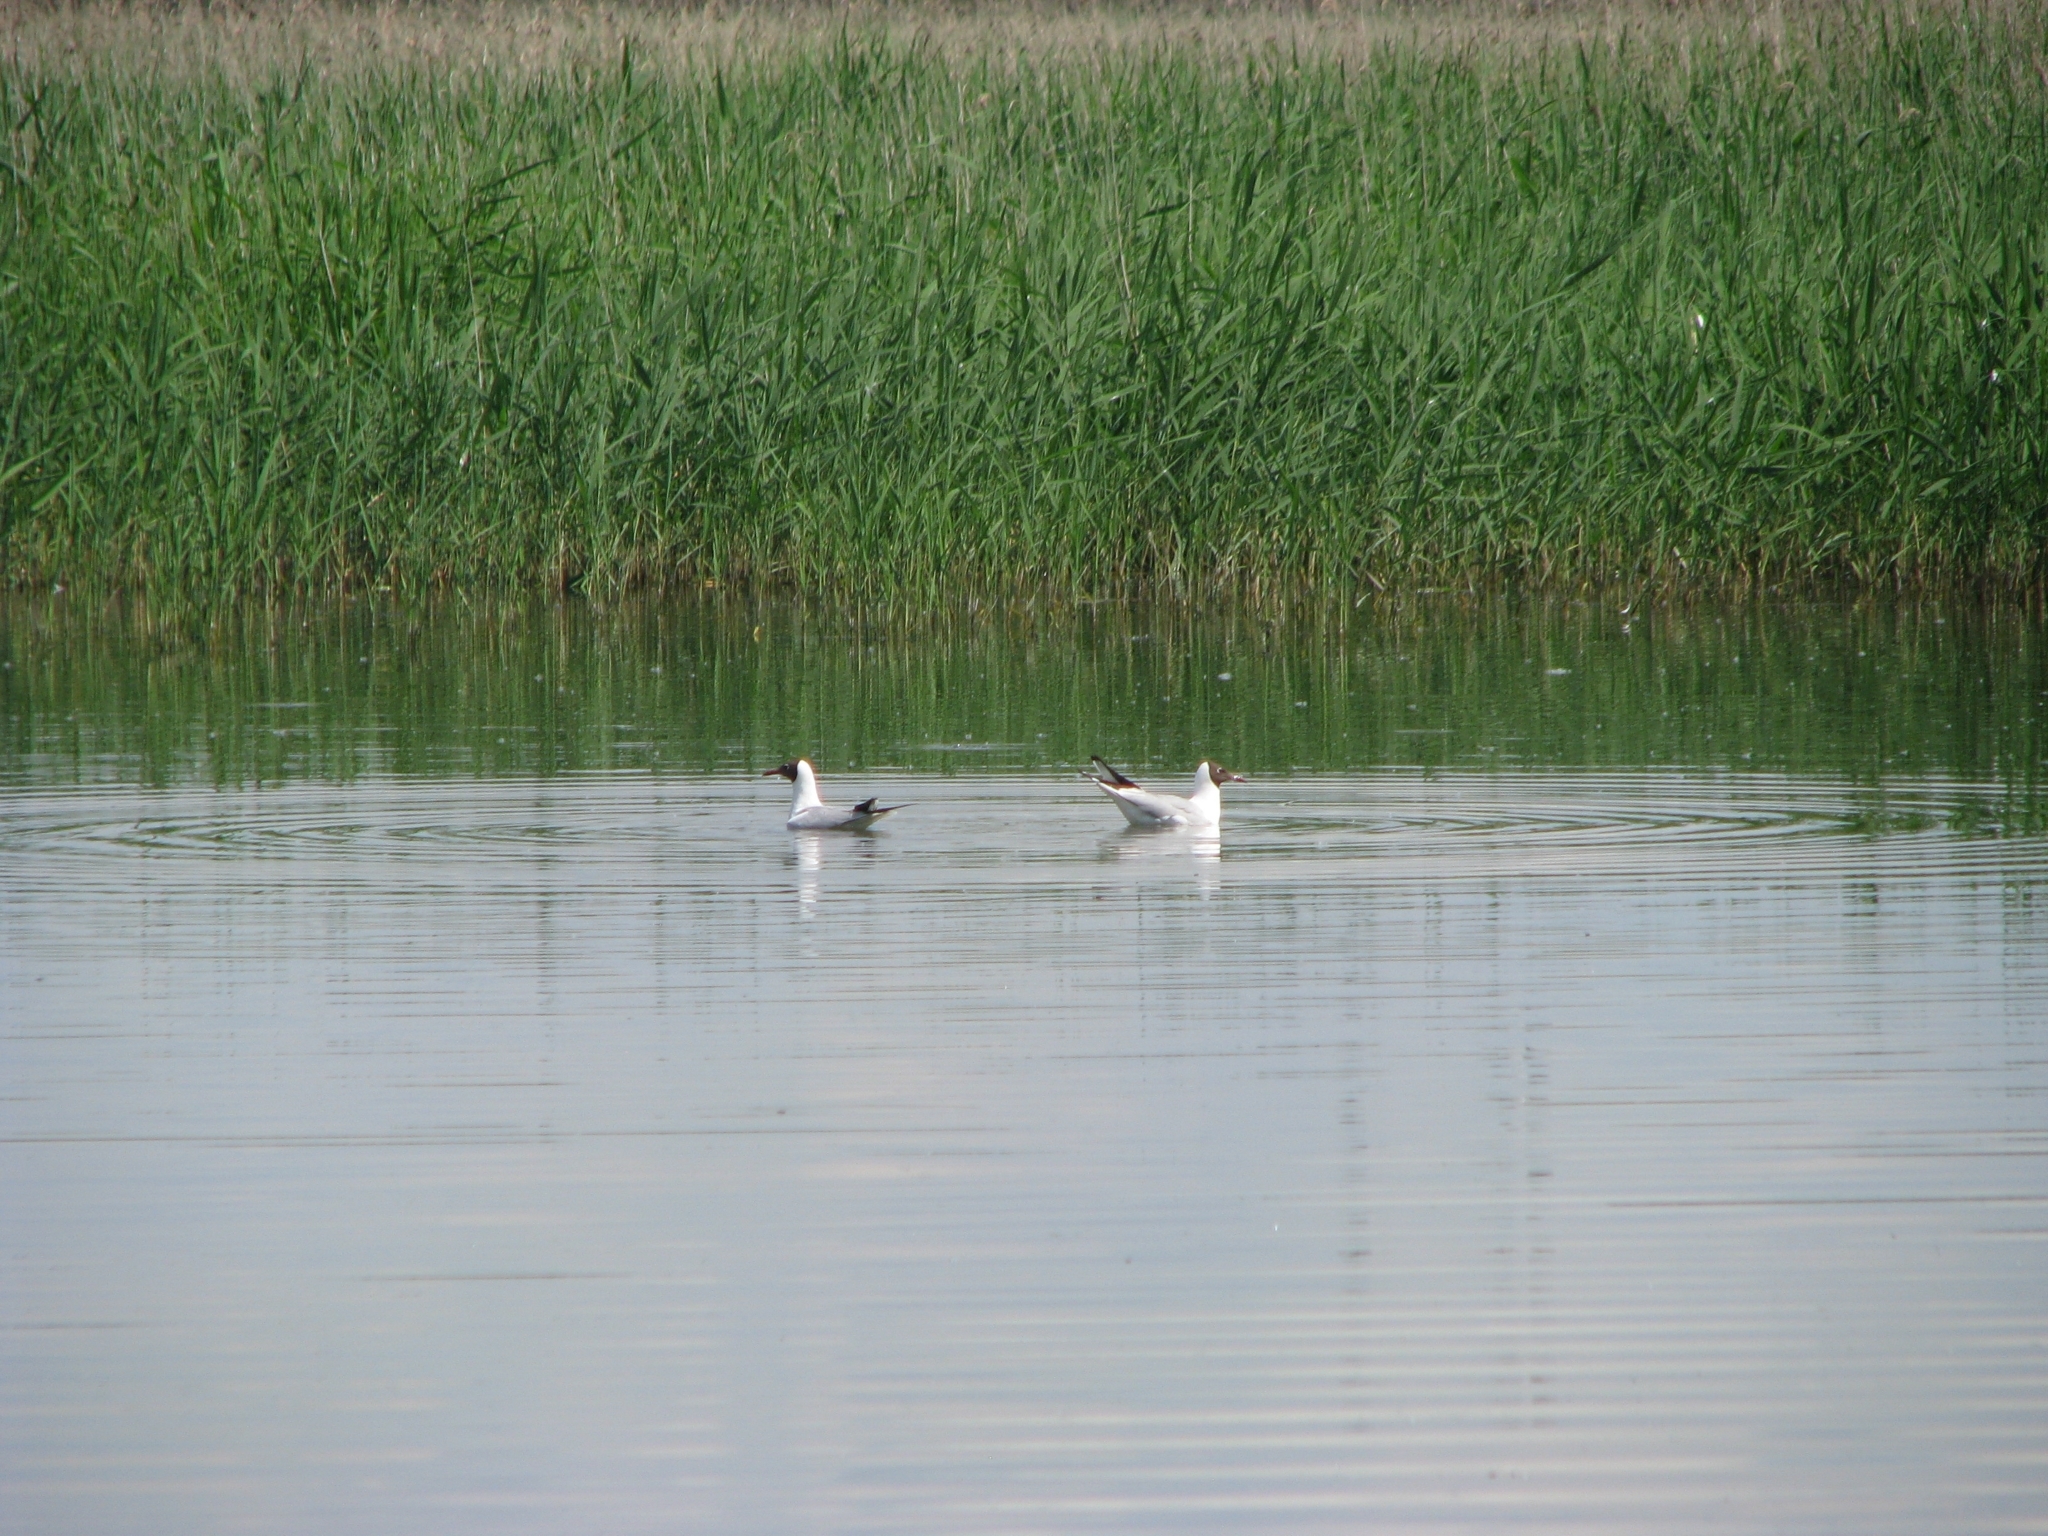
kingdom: Animalia
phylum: Chordata
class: Aves
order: Charadriiformes
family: Laridae
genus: Chroicocephalus
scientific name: Chroicocephalus ridibundus
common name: Black-headed gull
